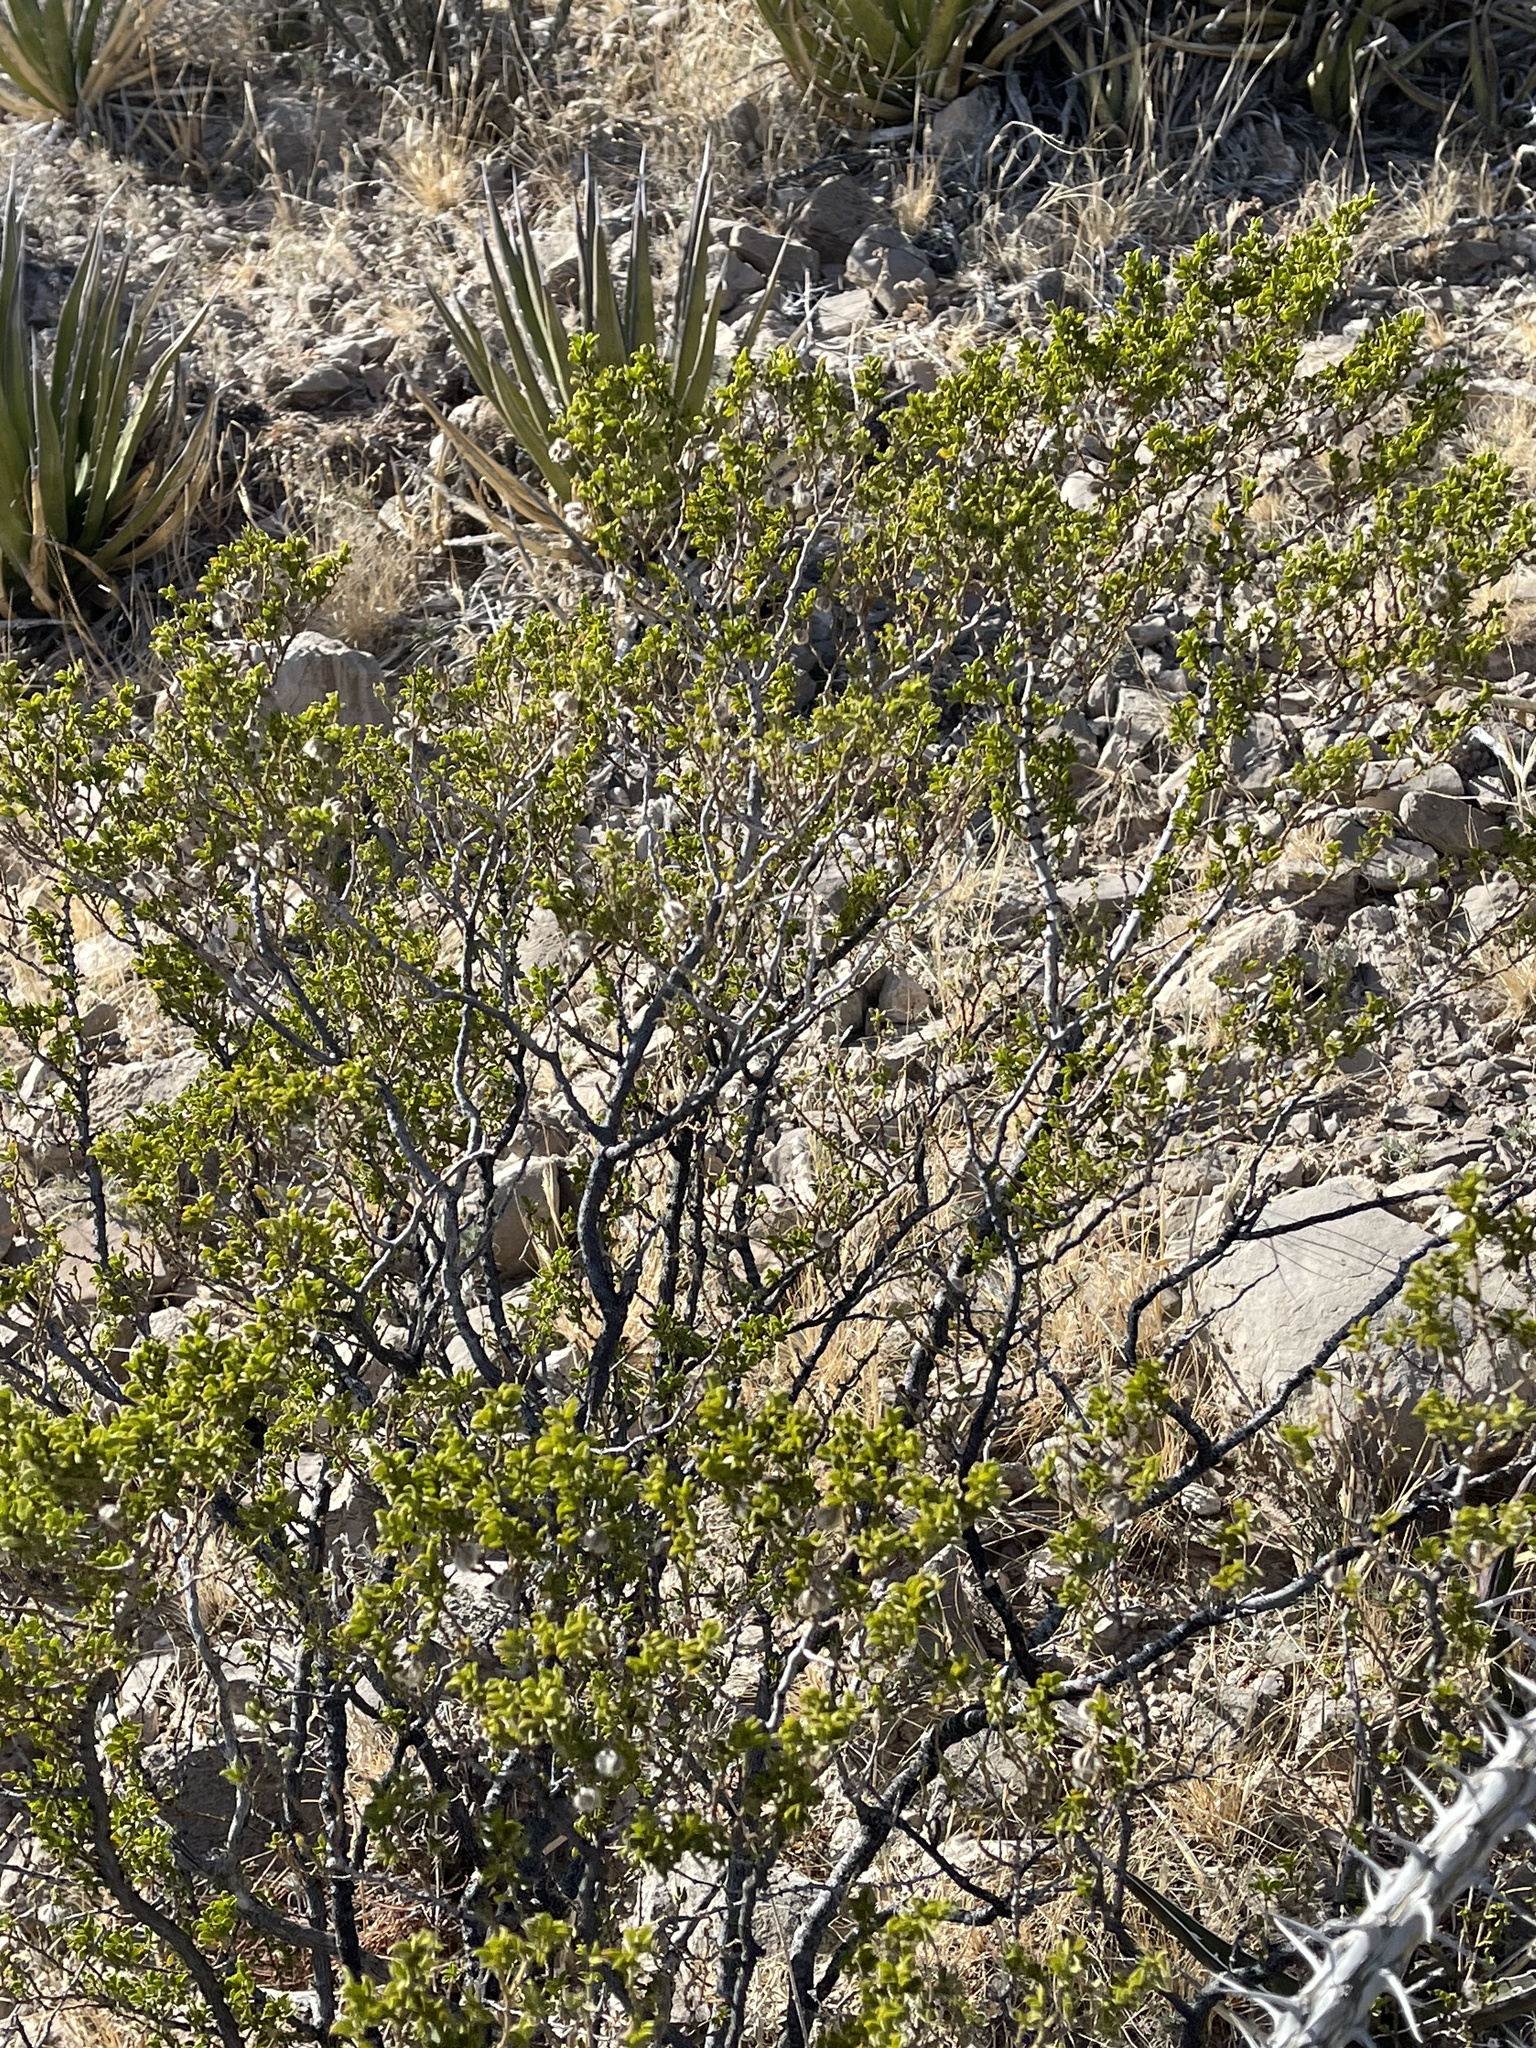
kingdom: Plantae
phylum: Tracheophyta
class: Magnoliopsida
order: Zygophyllales
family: Zygophyllaceae
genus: Larrea
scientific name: Larrea tridentata
